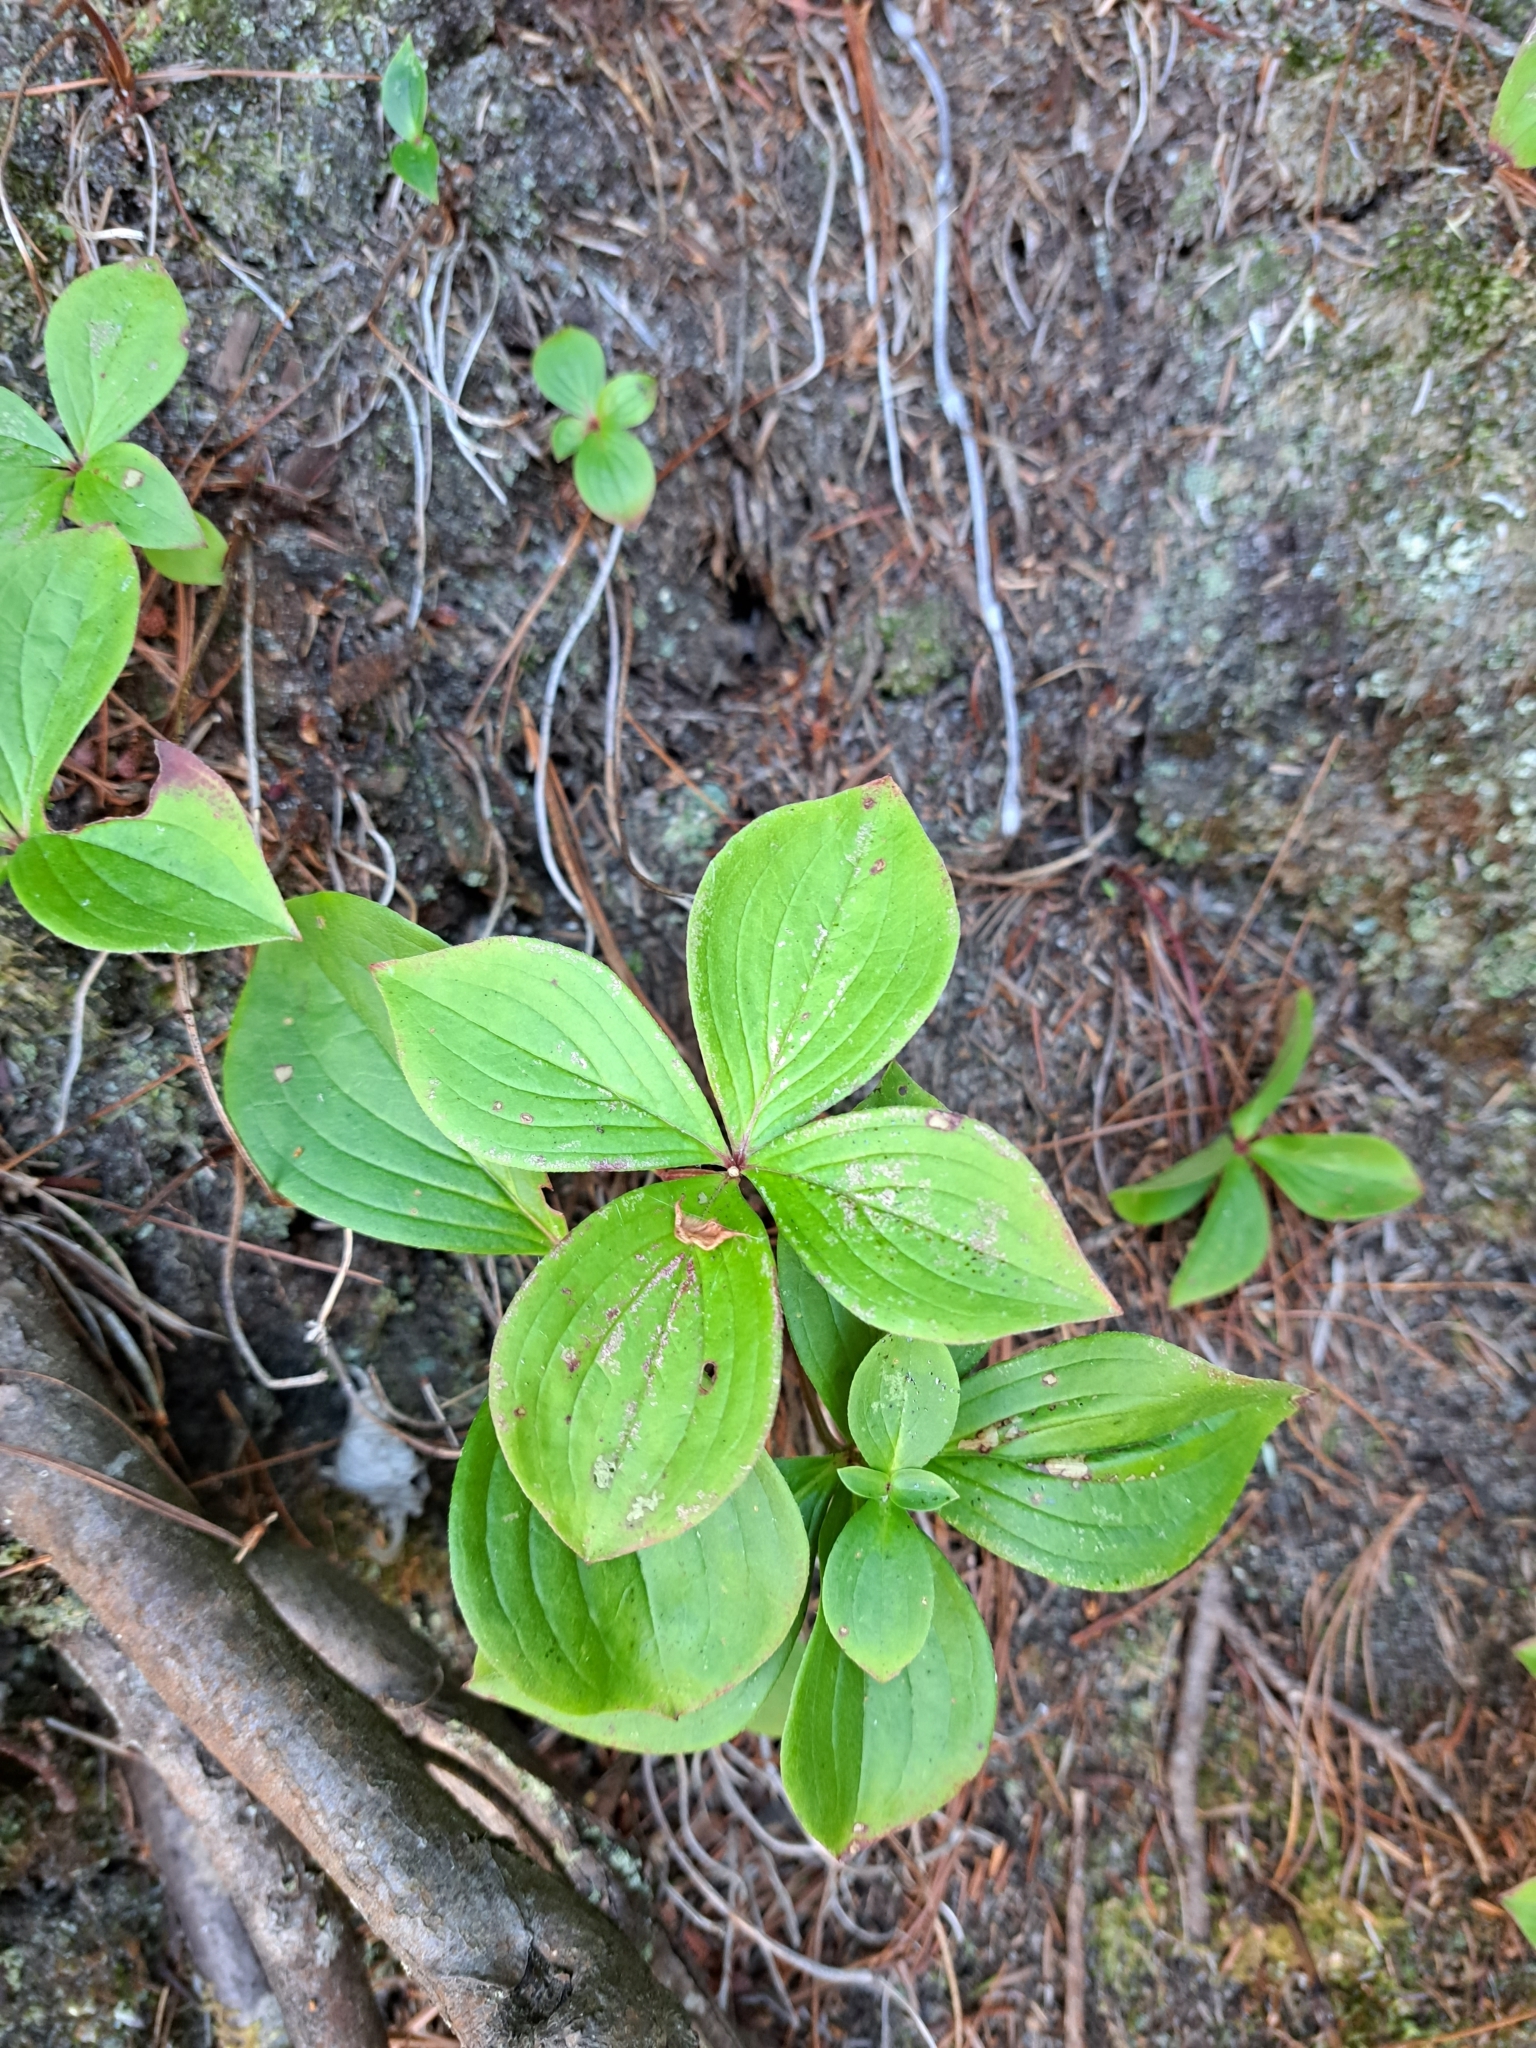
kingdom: Plantae
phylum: Tracheophyta
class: Magnoliopsida
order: Cornales
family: Cornaceae
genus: Cornus
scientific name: Cornus canadensis
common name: Creeping dogwood
